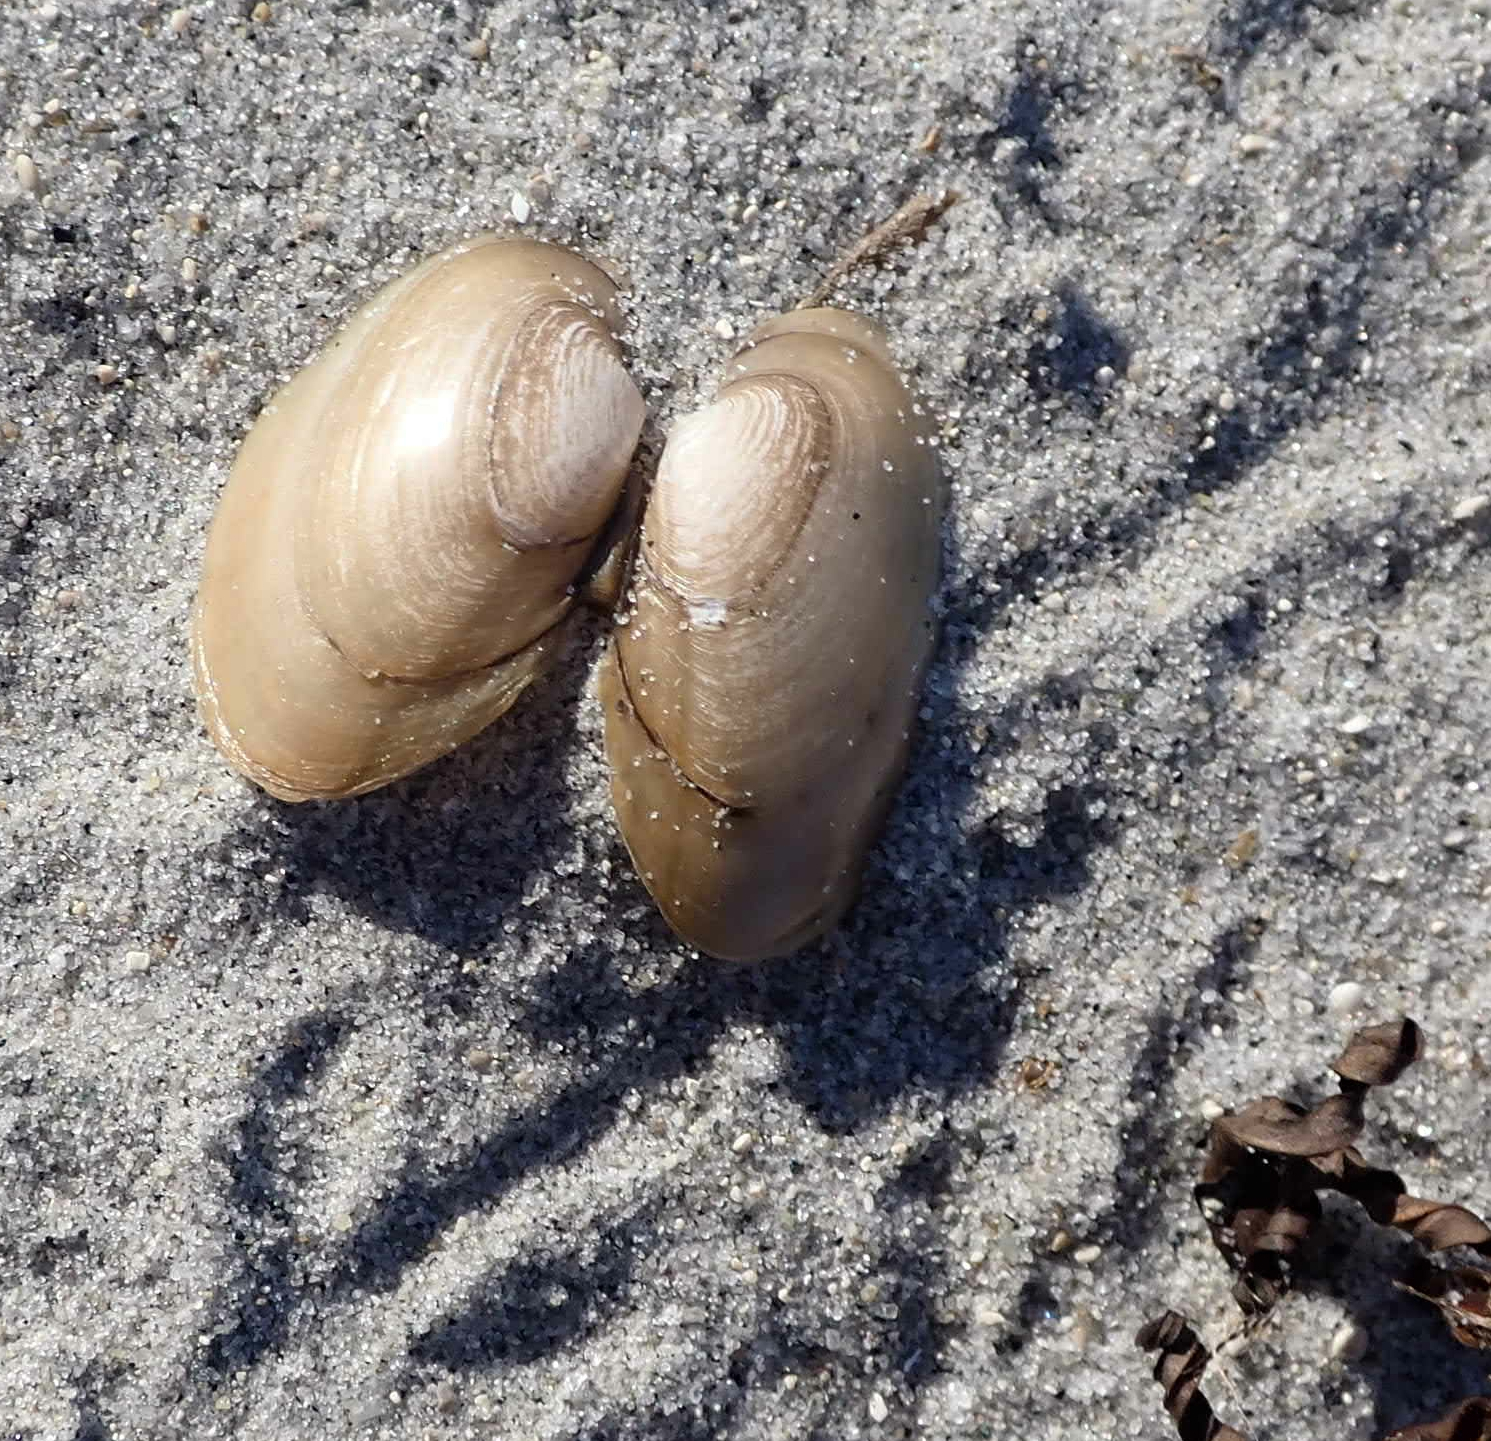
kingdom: Animalia
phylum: Mollusca
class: Bivalvia
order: Unionida
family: Unionidae
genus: Lampsilis
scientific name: Lampsilis siliquoidea
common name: Fatmucket
